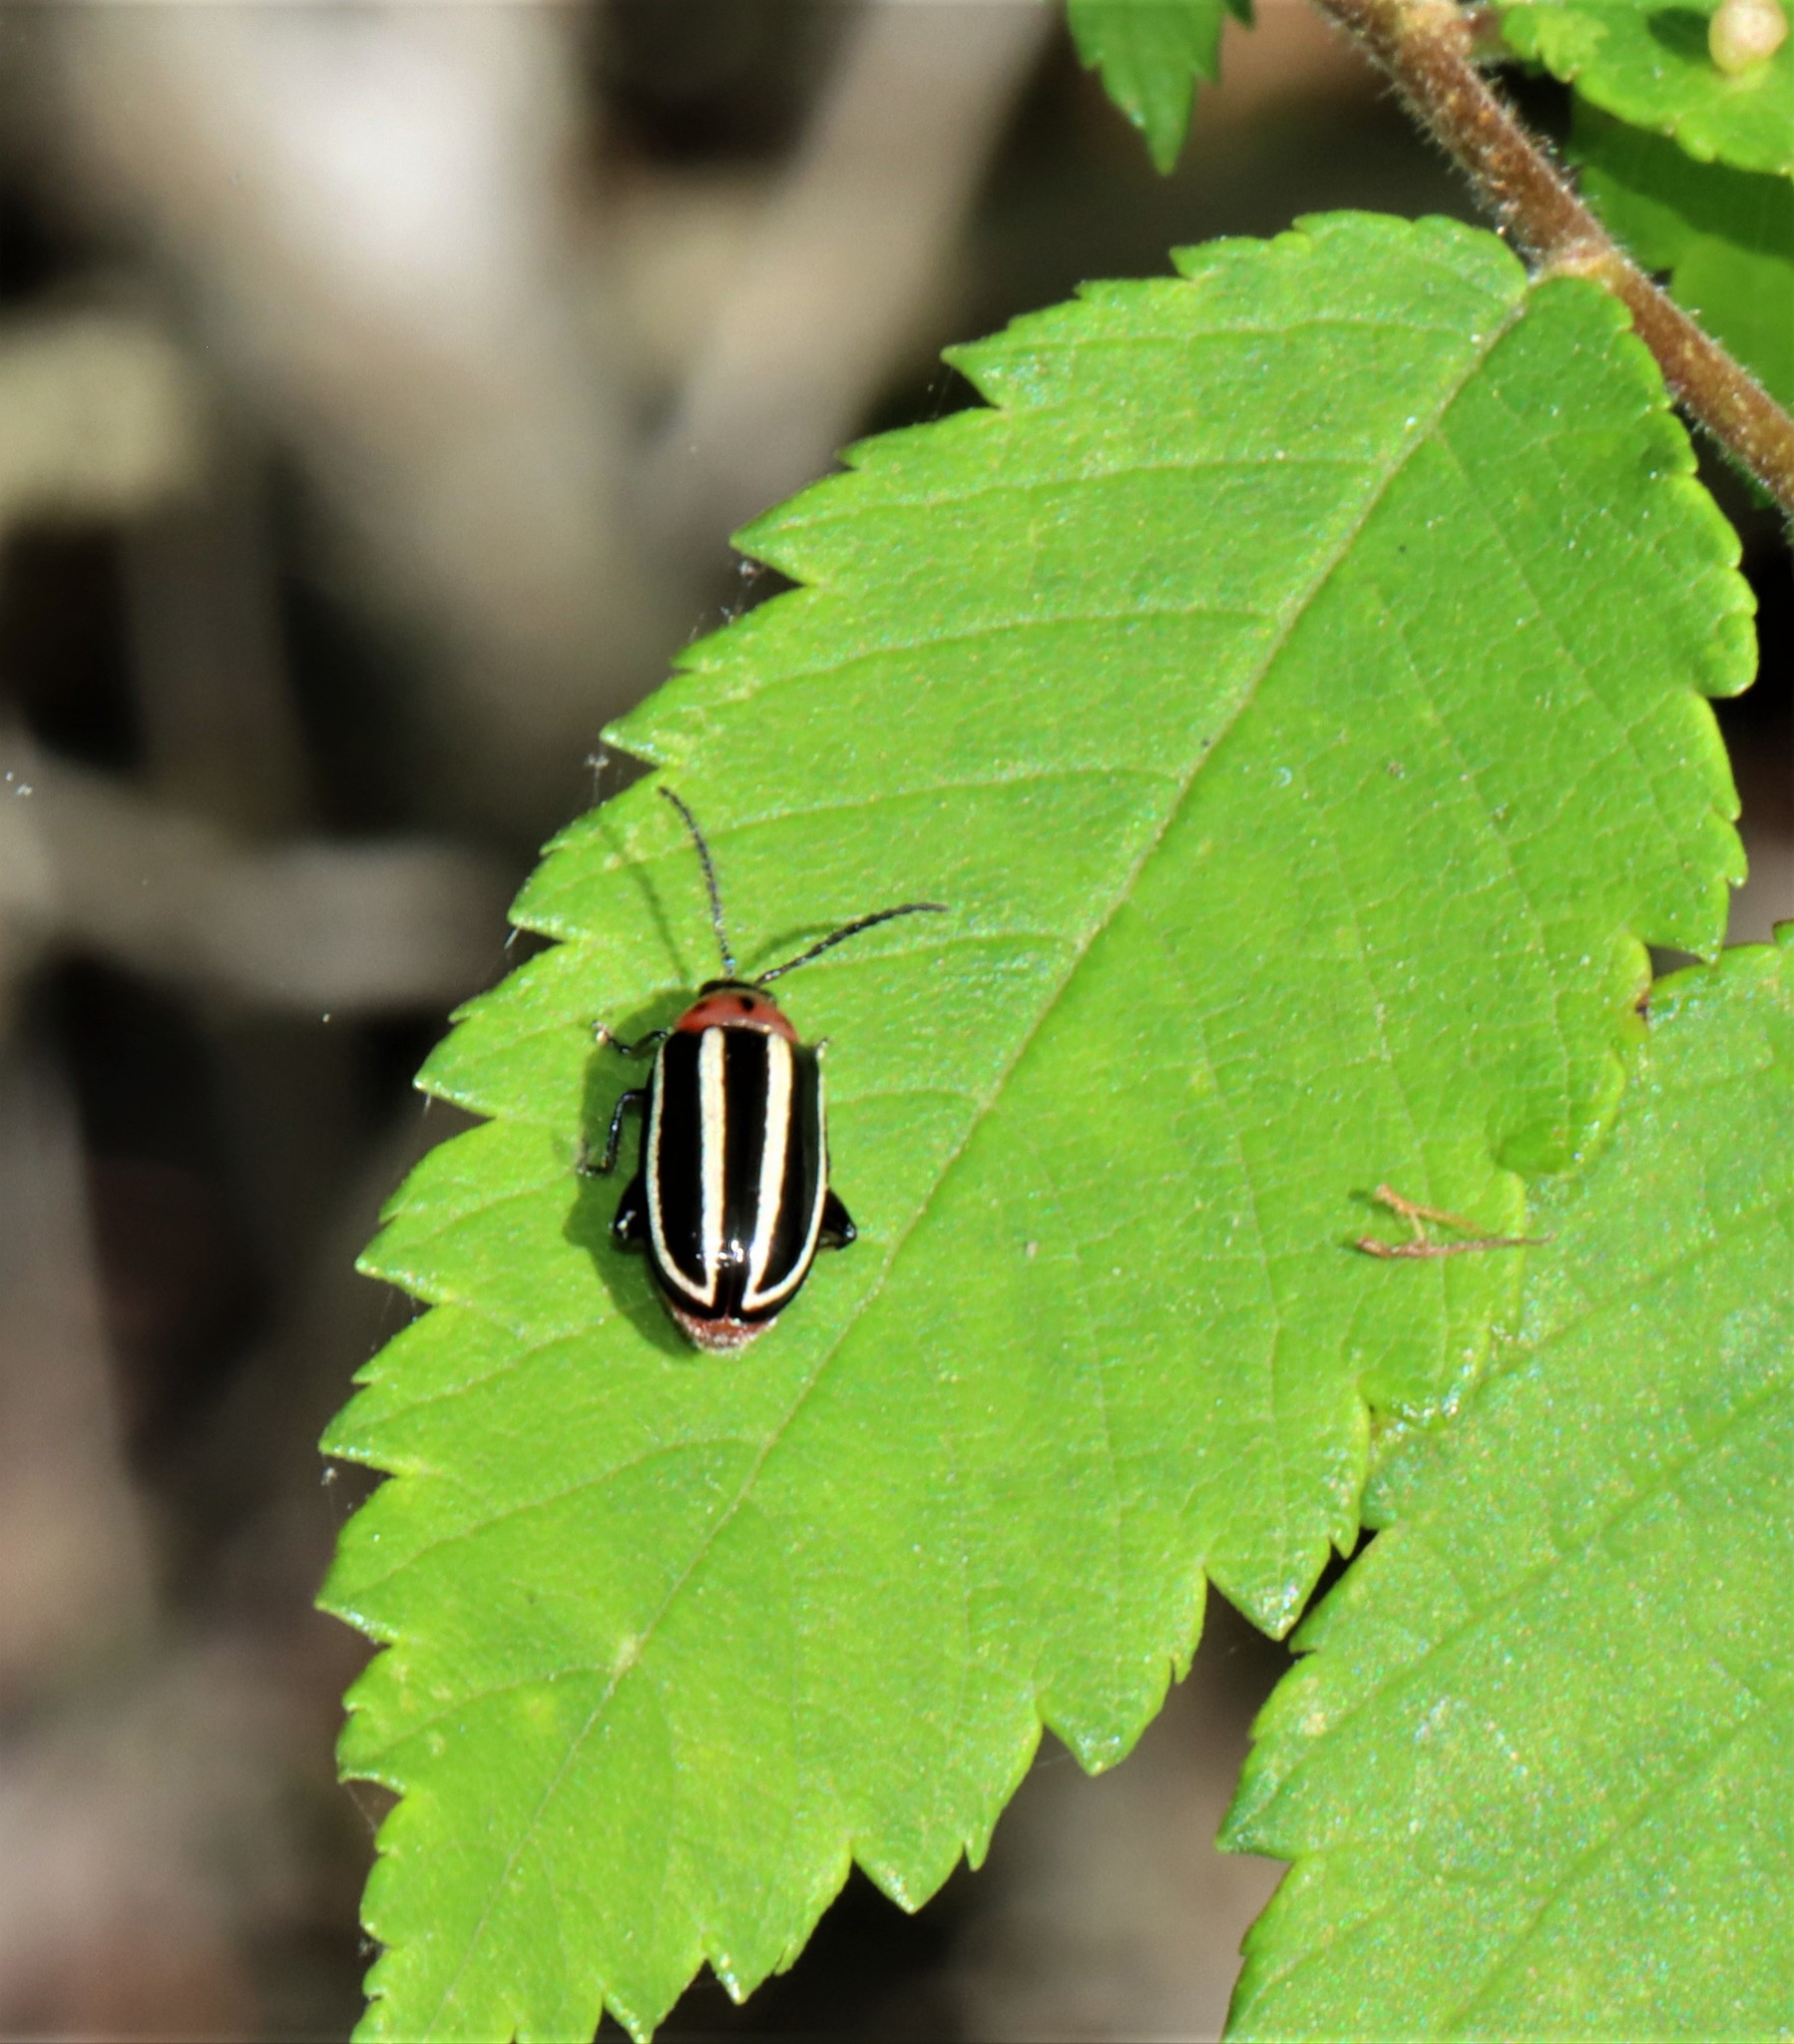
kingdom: Animalia
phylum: Arthropoda
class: Insecta
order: Coleoptera
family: Chrysomelidae
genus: Disonycha
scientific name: Disonycha glabrata
